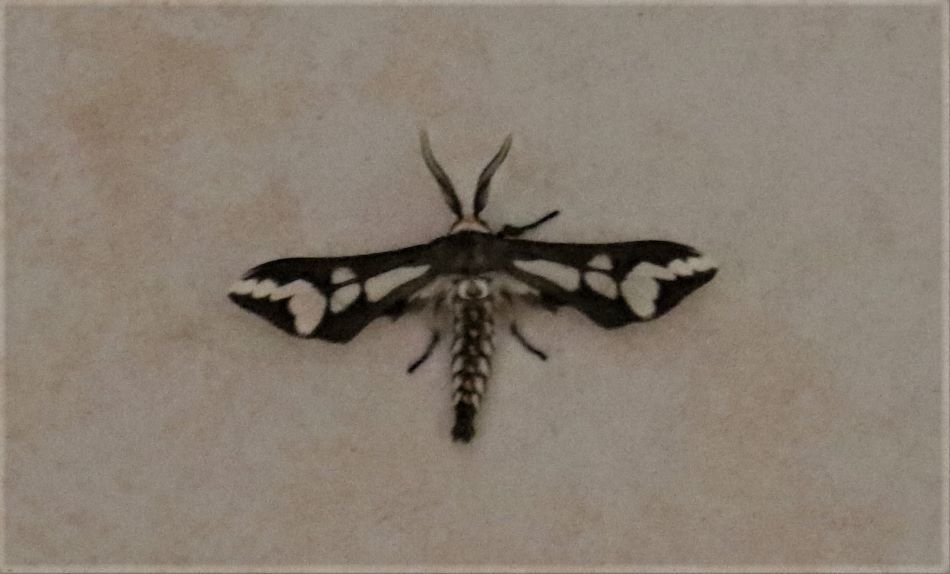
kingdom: Animalia
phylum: Arthropoda
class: Insecta
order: Lepidoptera
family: Erebidae
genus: Thyretes
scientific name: Thyretes caffra
